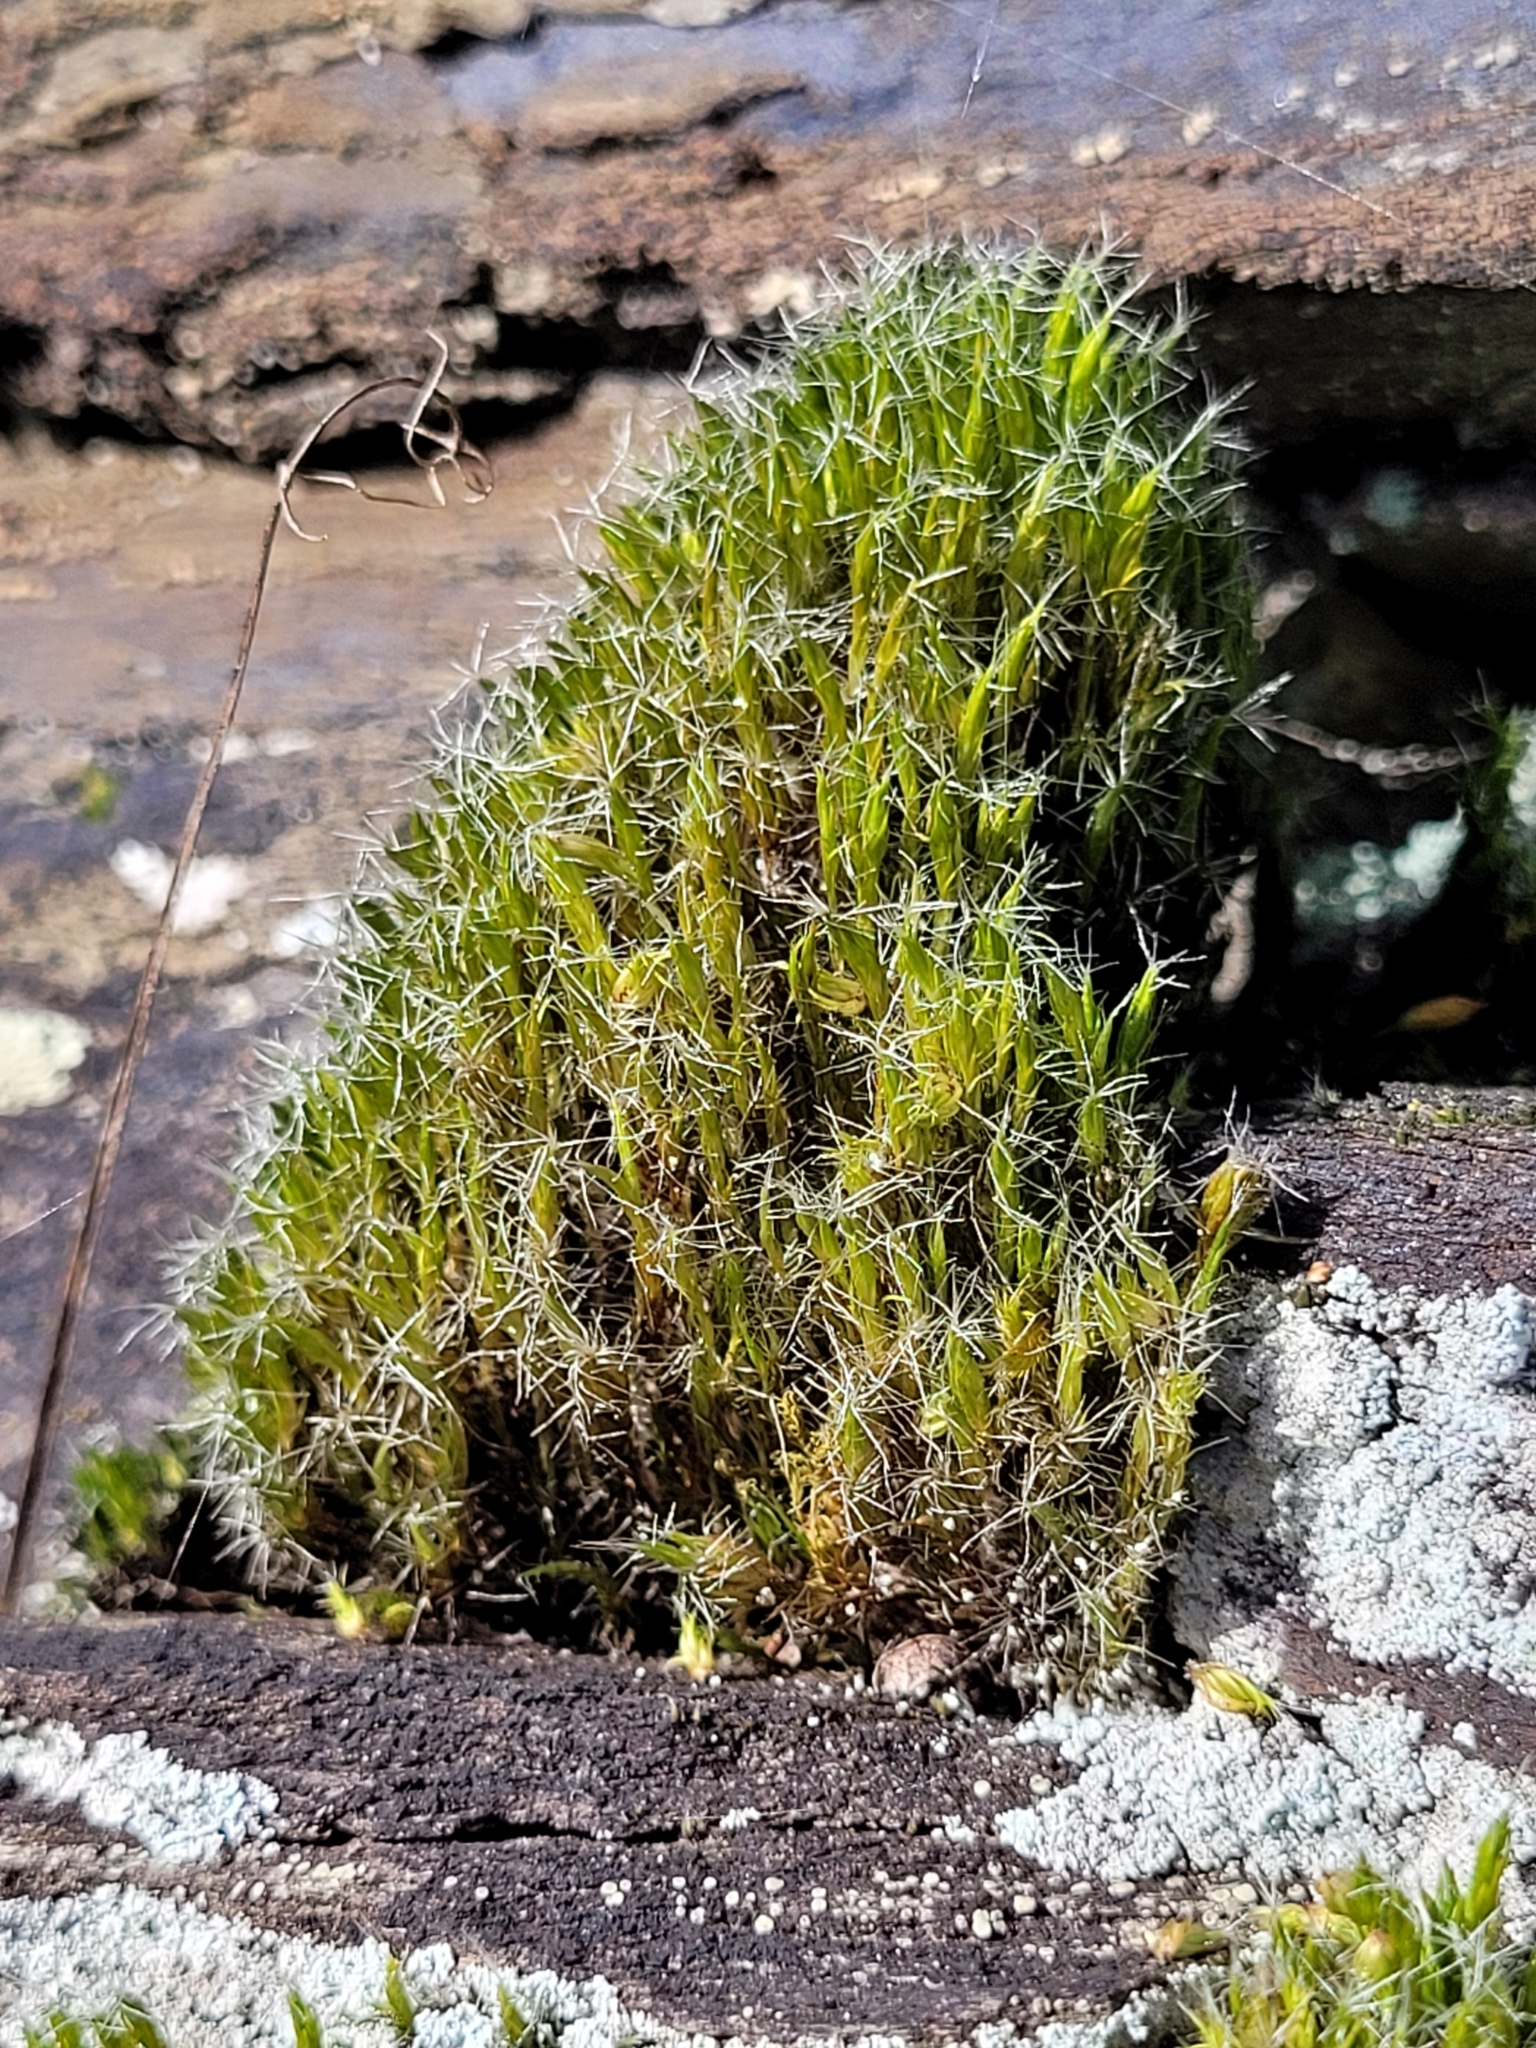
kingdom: Plantae
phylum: Bryophyta
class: Bryopsida
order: Dicranales
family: Leucobryaceae
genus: Campylopus
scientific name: Campylopus introflexus
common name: Heath star moss
